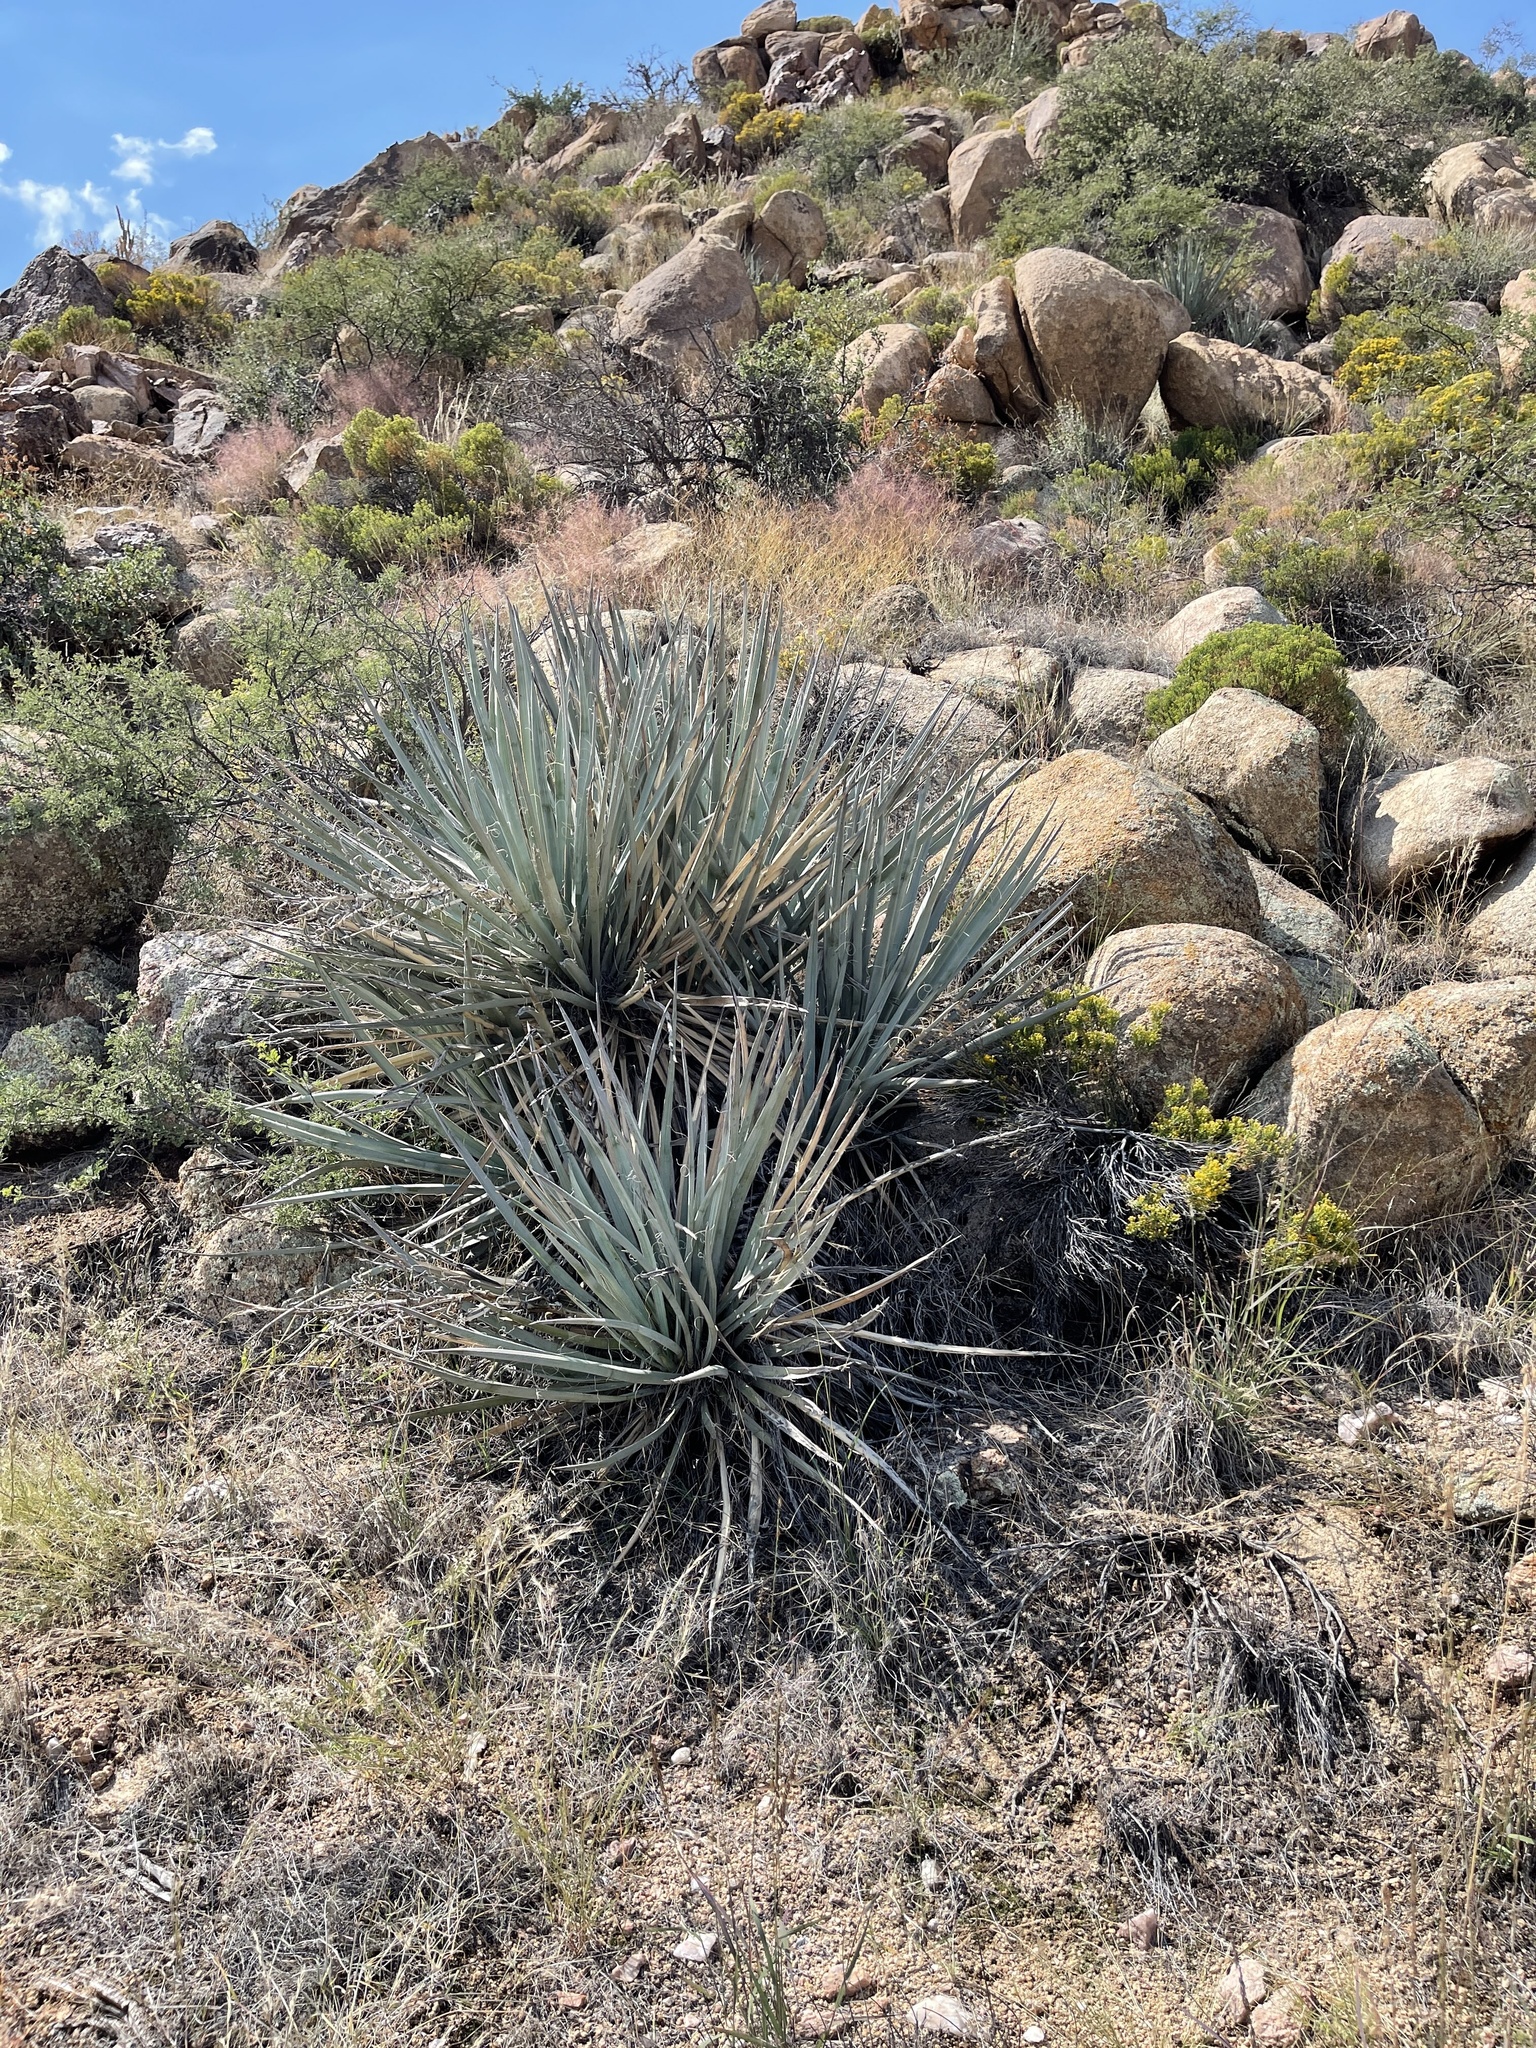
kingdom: Plantae
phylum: Tracheophyta
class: Liliopsida
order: Asparagales
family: Asparagaceae
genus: Yucca
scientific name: Yucca baccata
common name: Banana yucca
